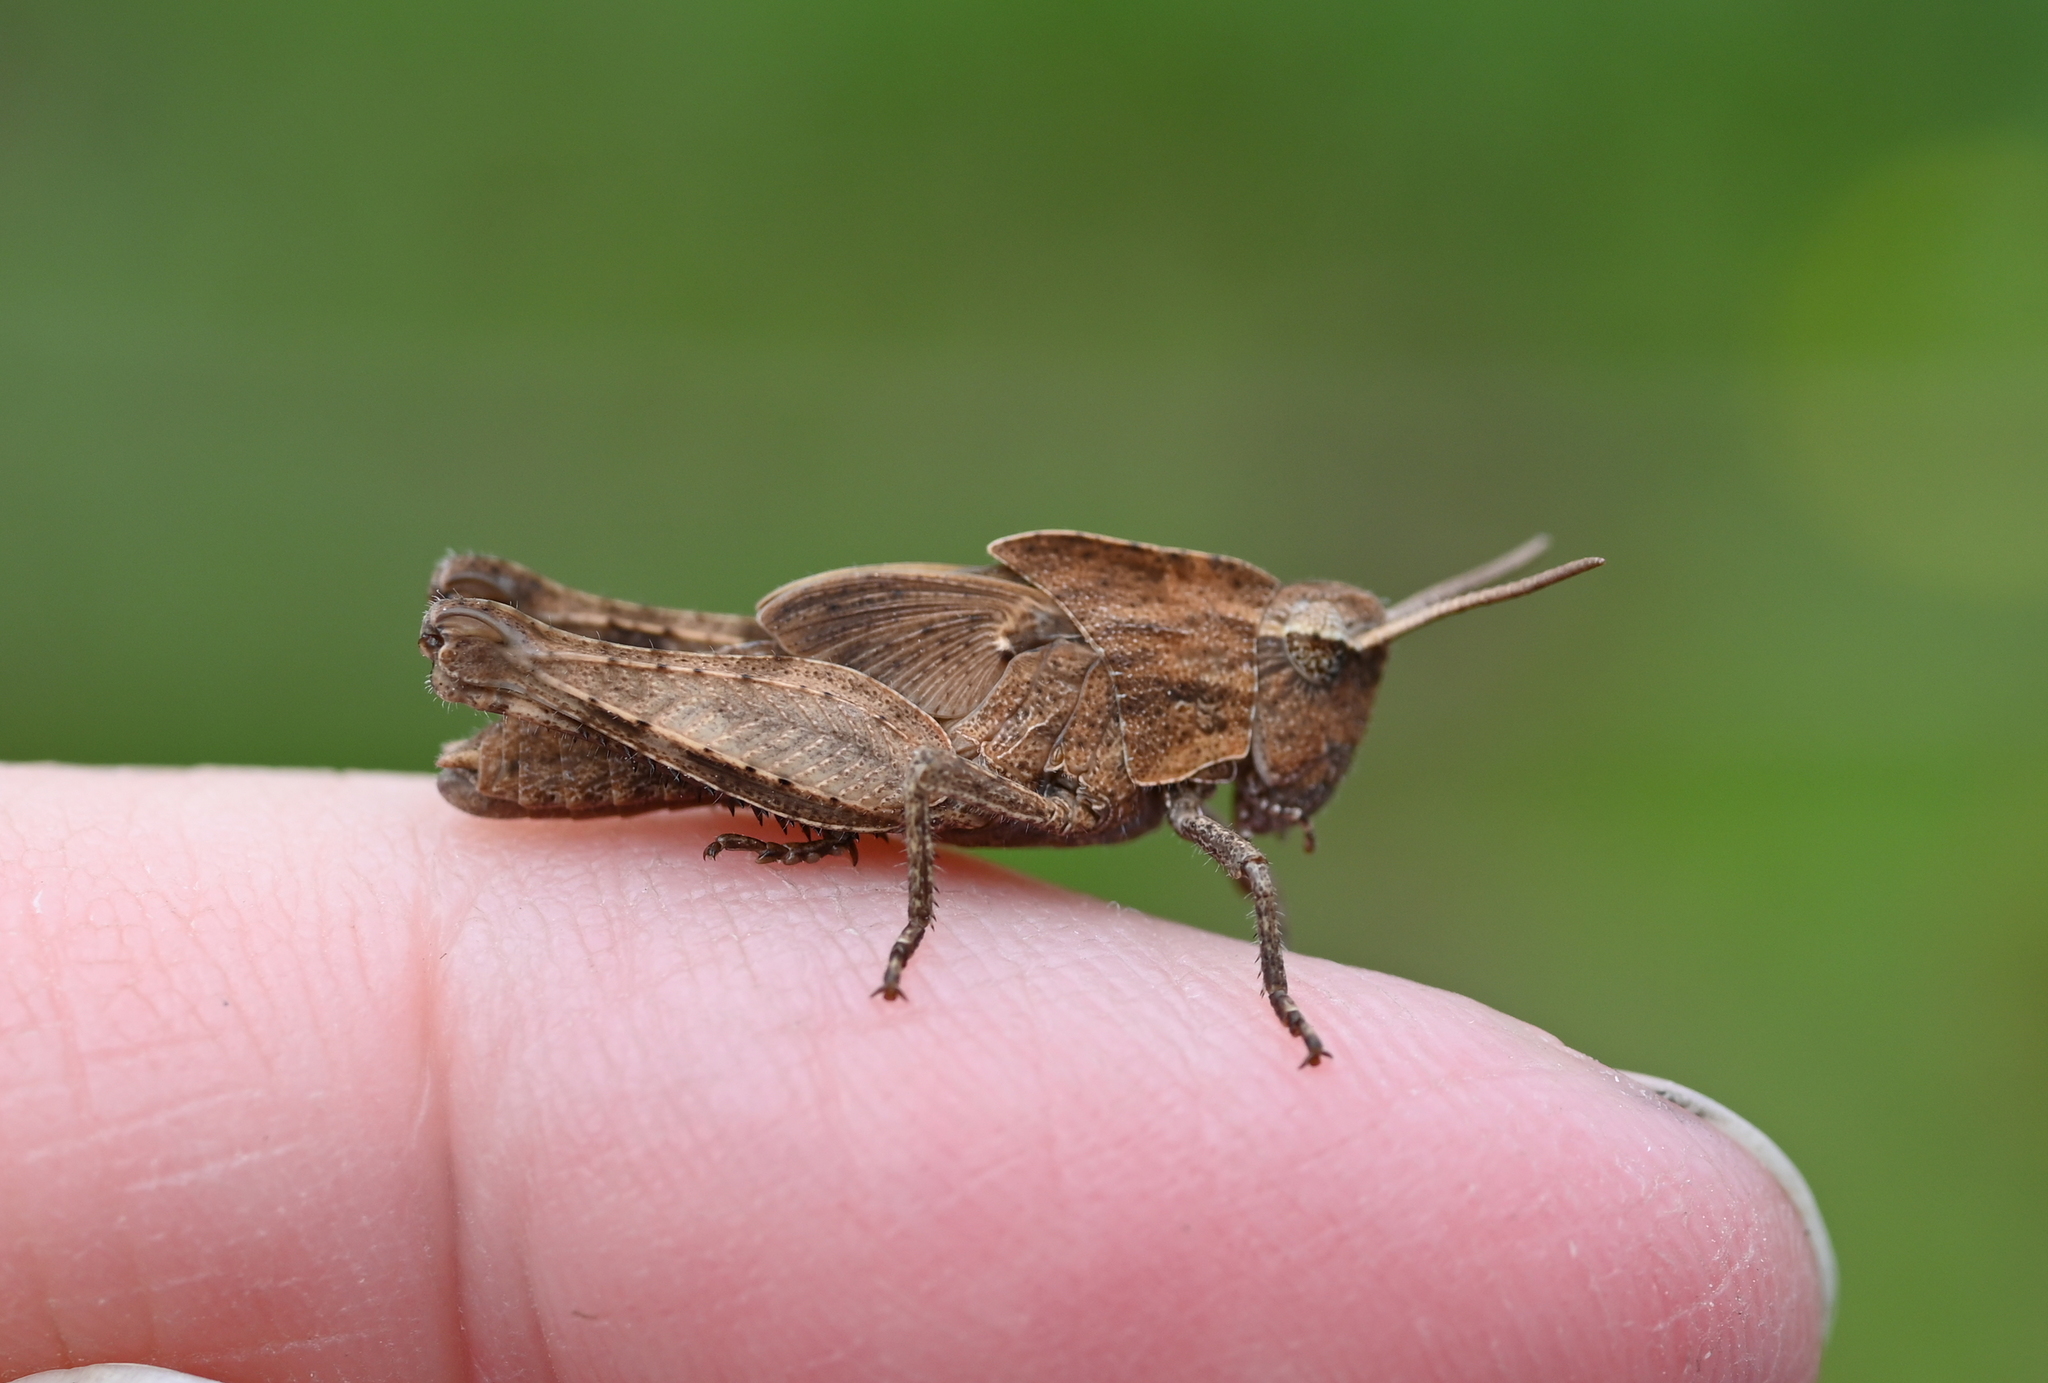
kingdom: Animalia
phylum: Arthropoda
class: Insecta
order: Orthoptera
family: Acrididae
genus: Chortophaga
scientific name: Chortophaga viridifasciata
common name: Green-striped grasshopper
